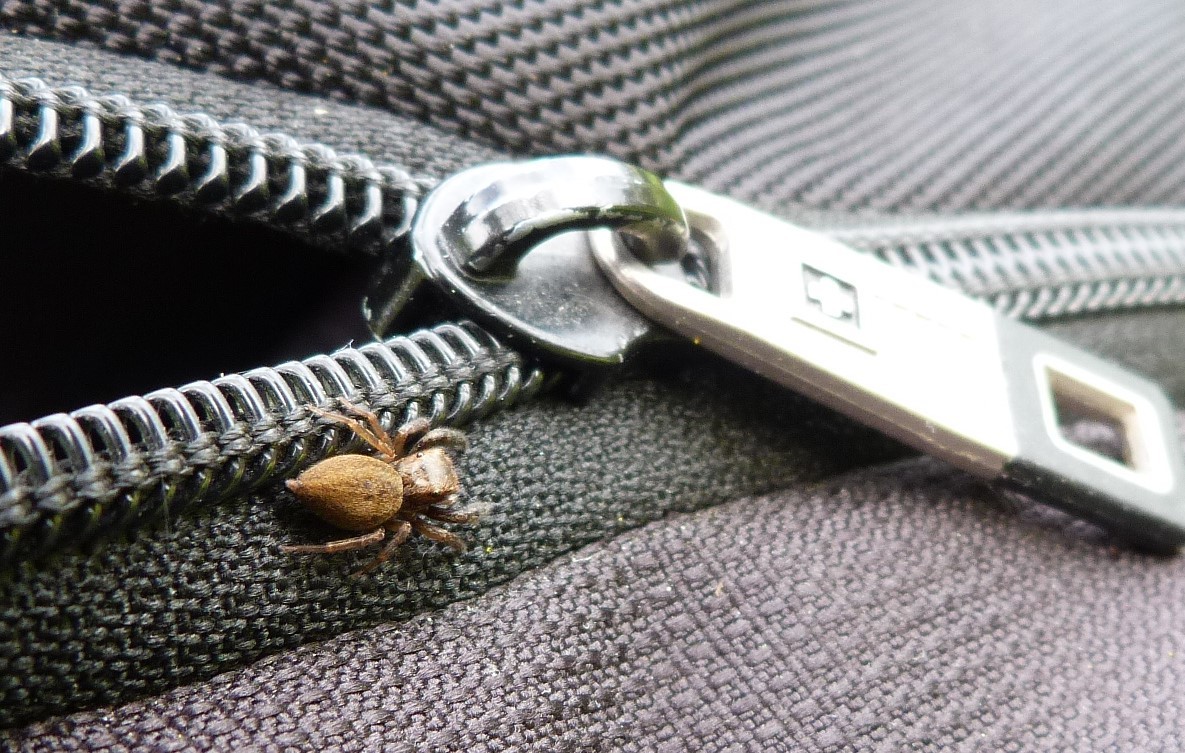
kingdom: Animalia
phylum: Arthropoda
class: Arachnida
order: Araneae
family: Salticidae
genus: Trite
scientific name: Trite auricoma
